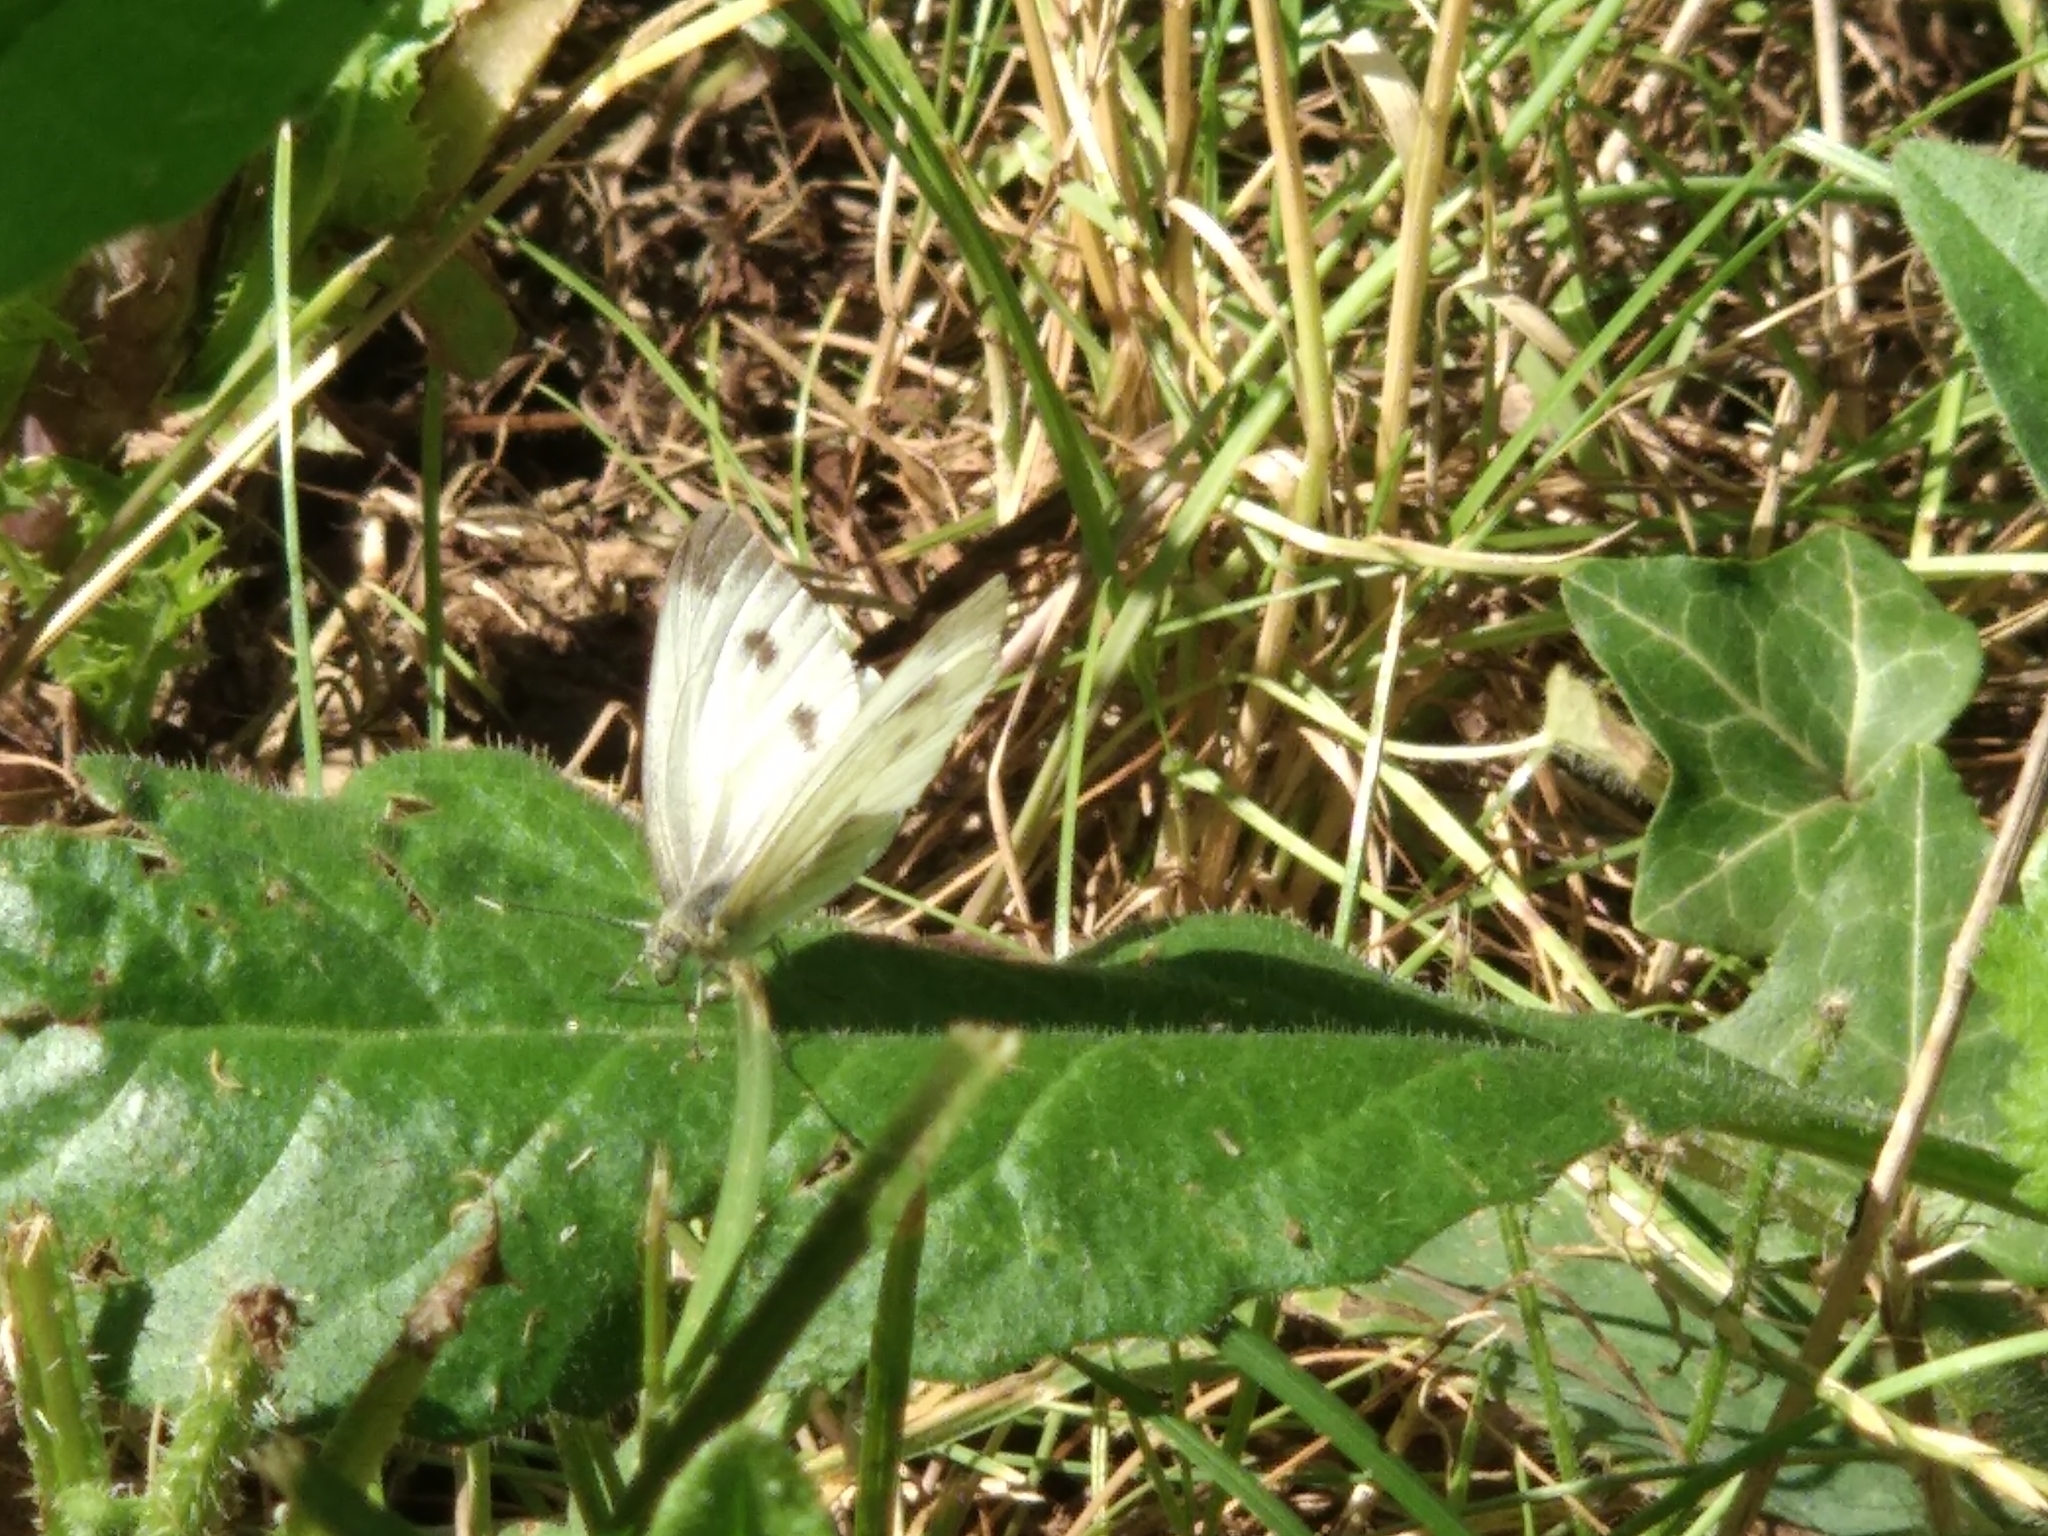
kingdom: Animalia
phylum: Arthropoda
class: Insecta
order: Lepidoptera
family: Pieridae
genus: Pieris
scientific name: Pieris rapae
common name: Small white
